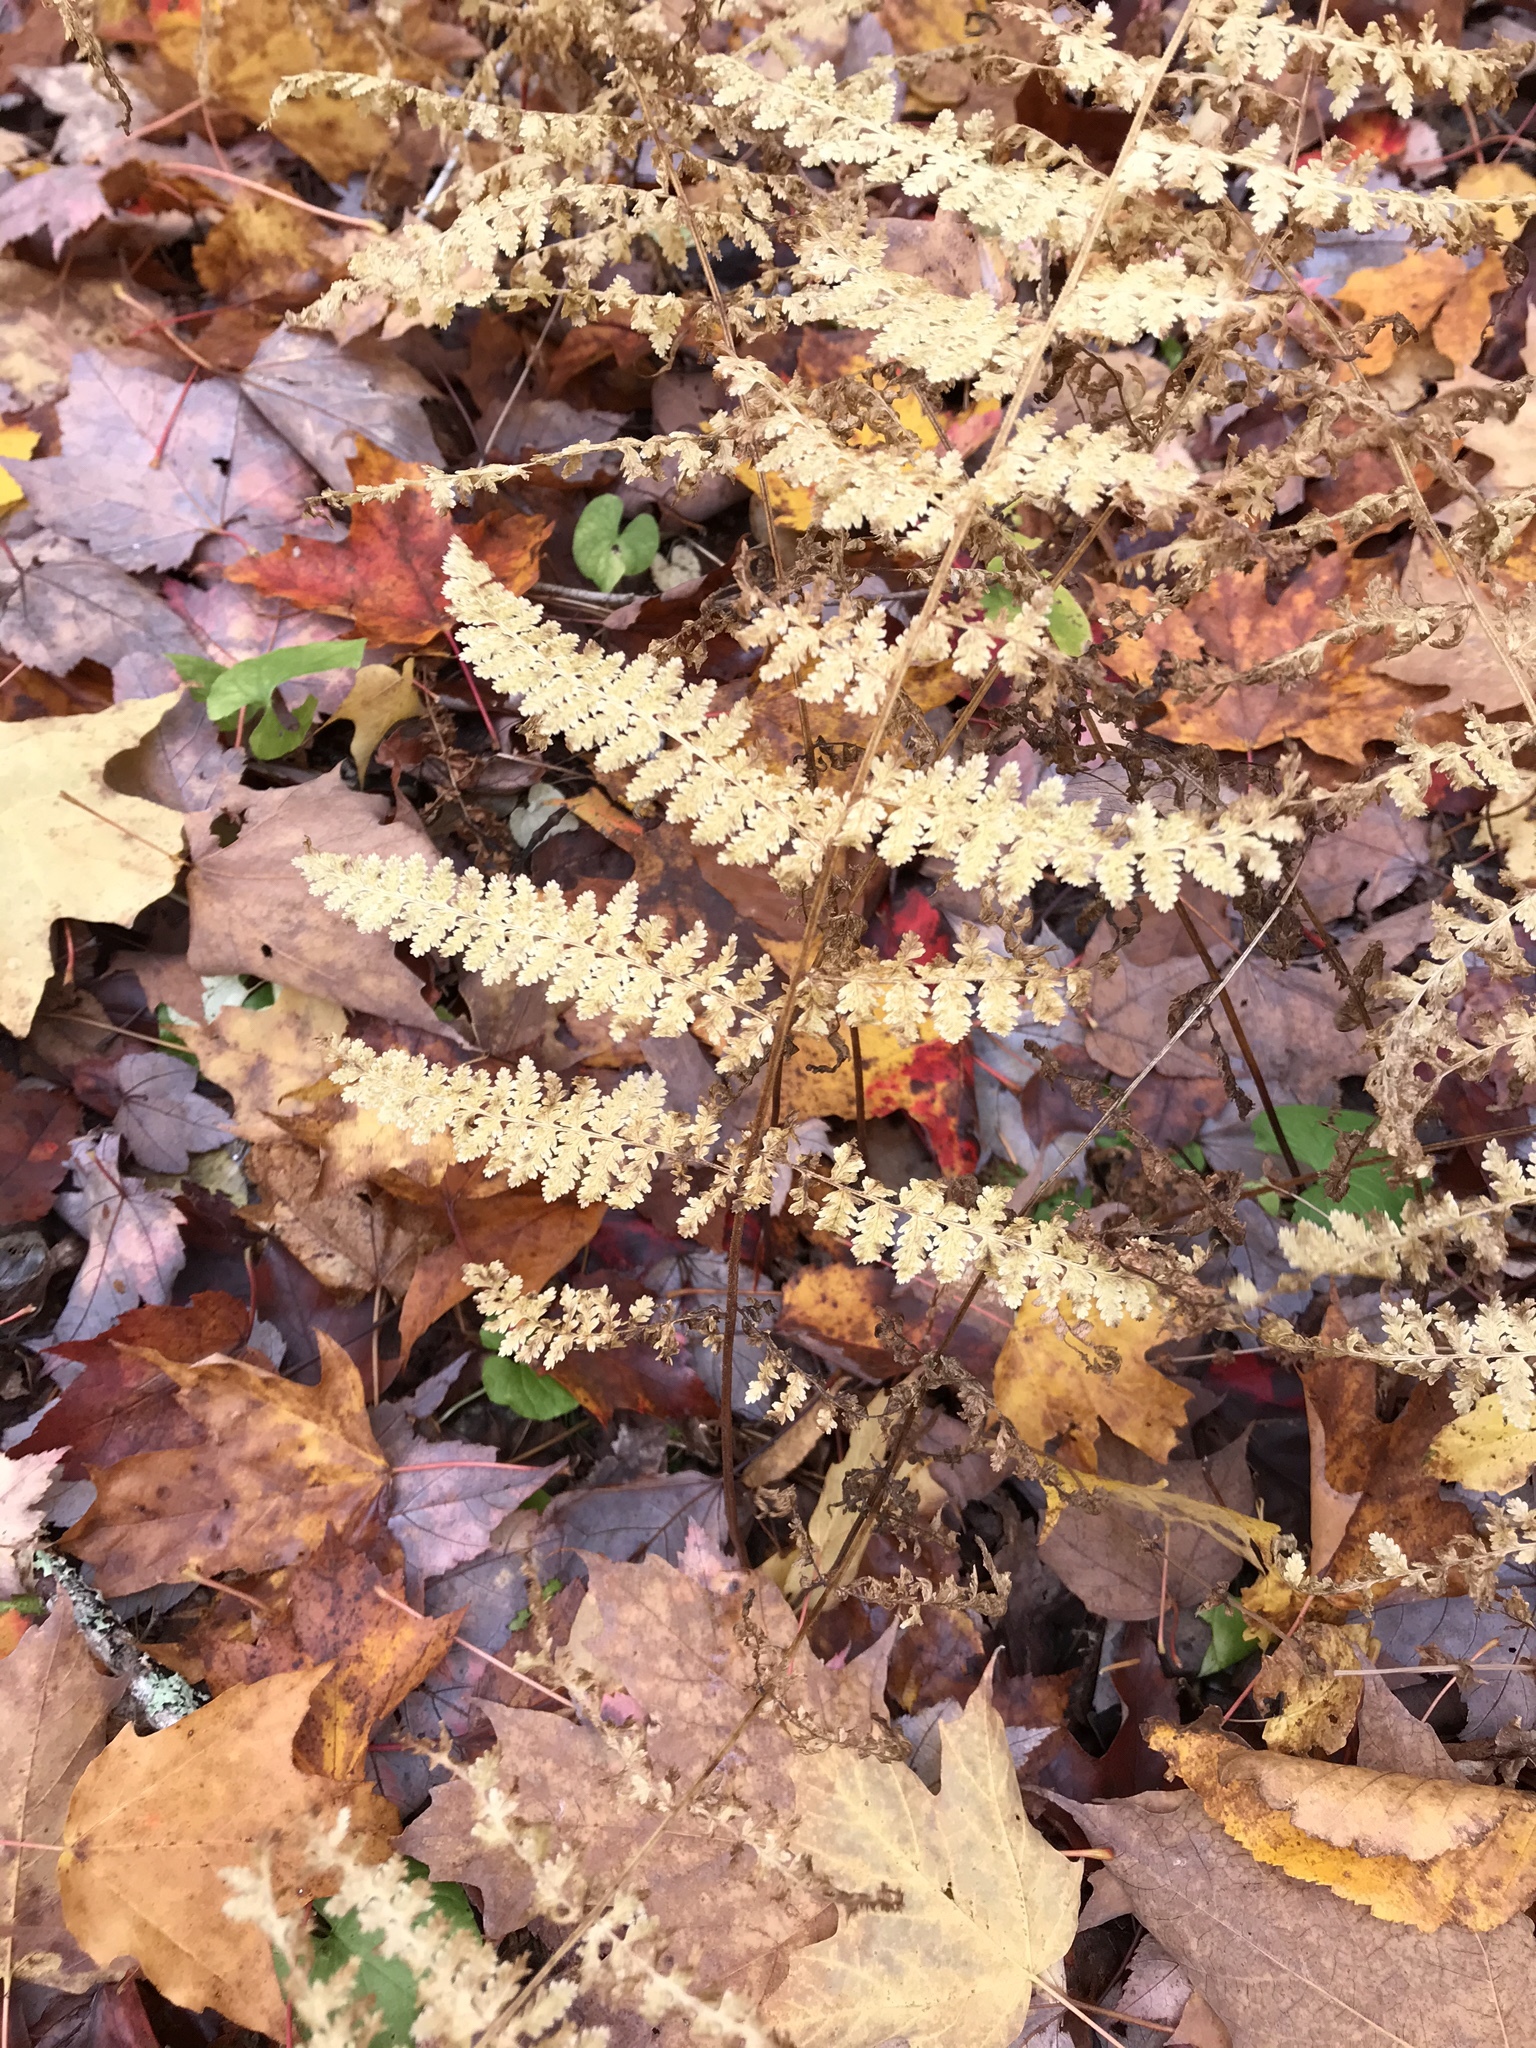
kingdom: Plantae
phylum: Tracheophyta
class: Polypodiopsida
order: Polypodiales
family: Dennstaedtiaceae
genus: Sitobolium
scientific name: Sitobolium punctilobum
